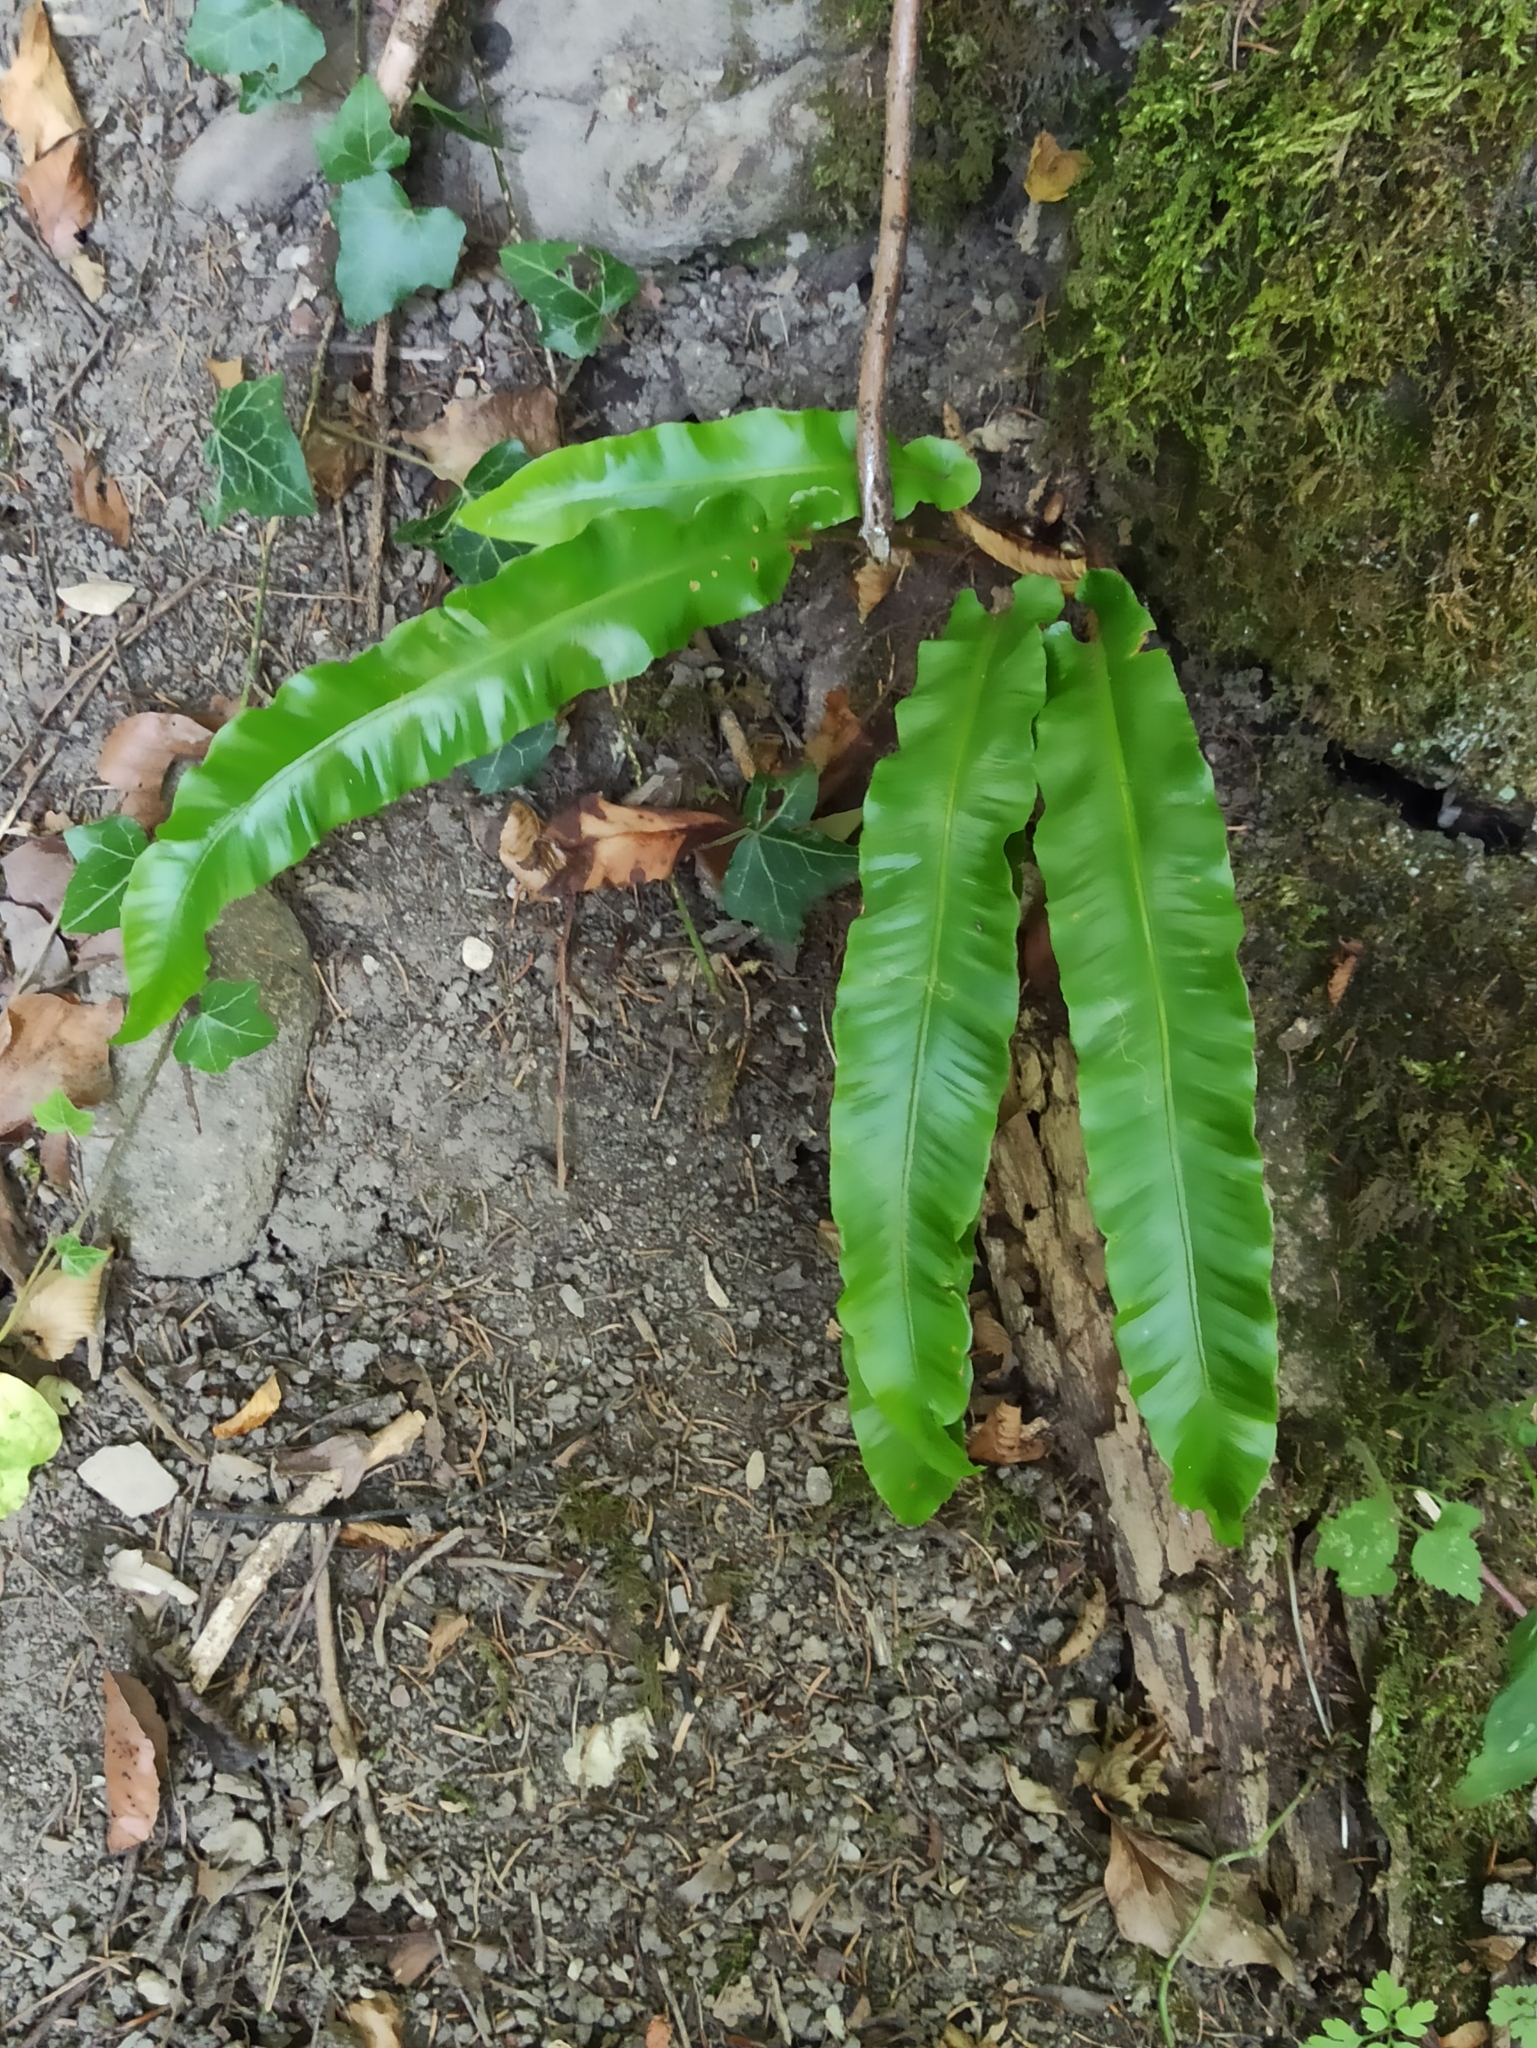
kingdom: Plantae
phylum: Tracheophyta
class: Polypodiopsida
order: Polypodiales
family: Aspleniaceae
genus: Asplenium
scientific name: Asplenium scolopendrium
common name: Hart's-tongue fern
